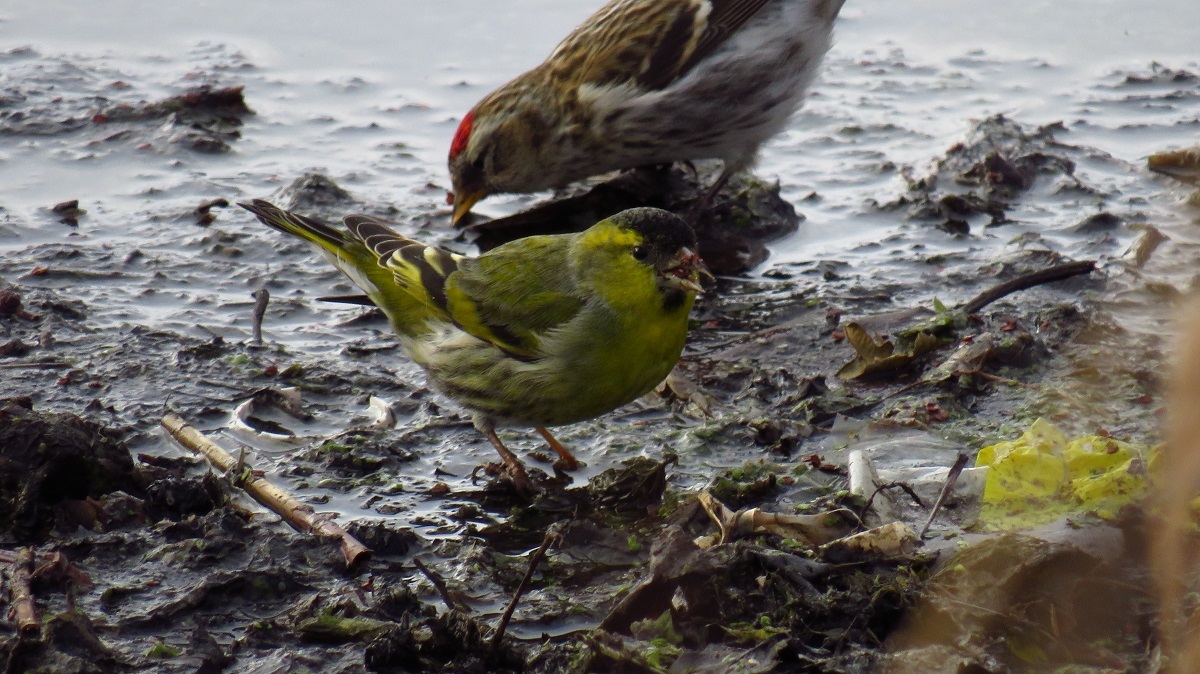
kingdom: Animalia
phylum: Chordata
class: Aves
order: Passeriformes
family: Fringillidae
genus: Spinus
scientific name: Spinus spinus
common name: Eurasian siskin
